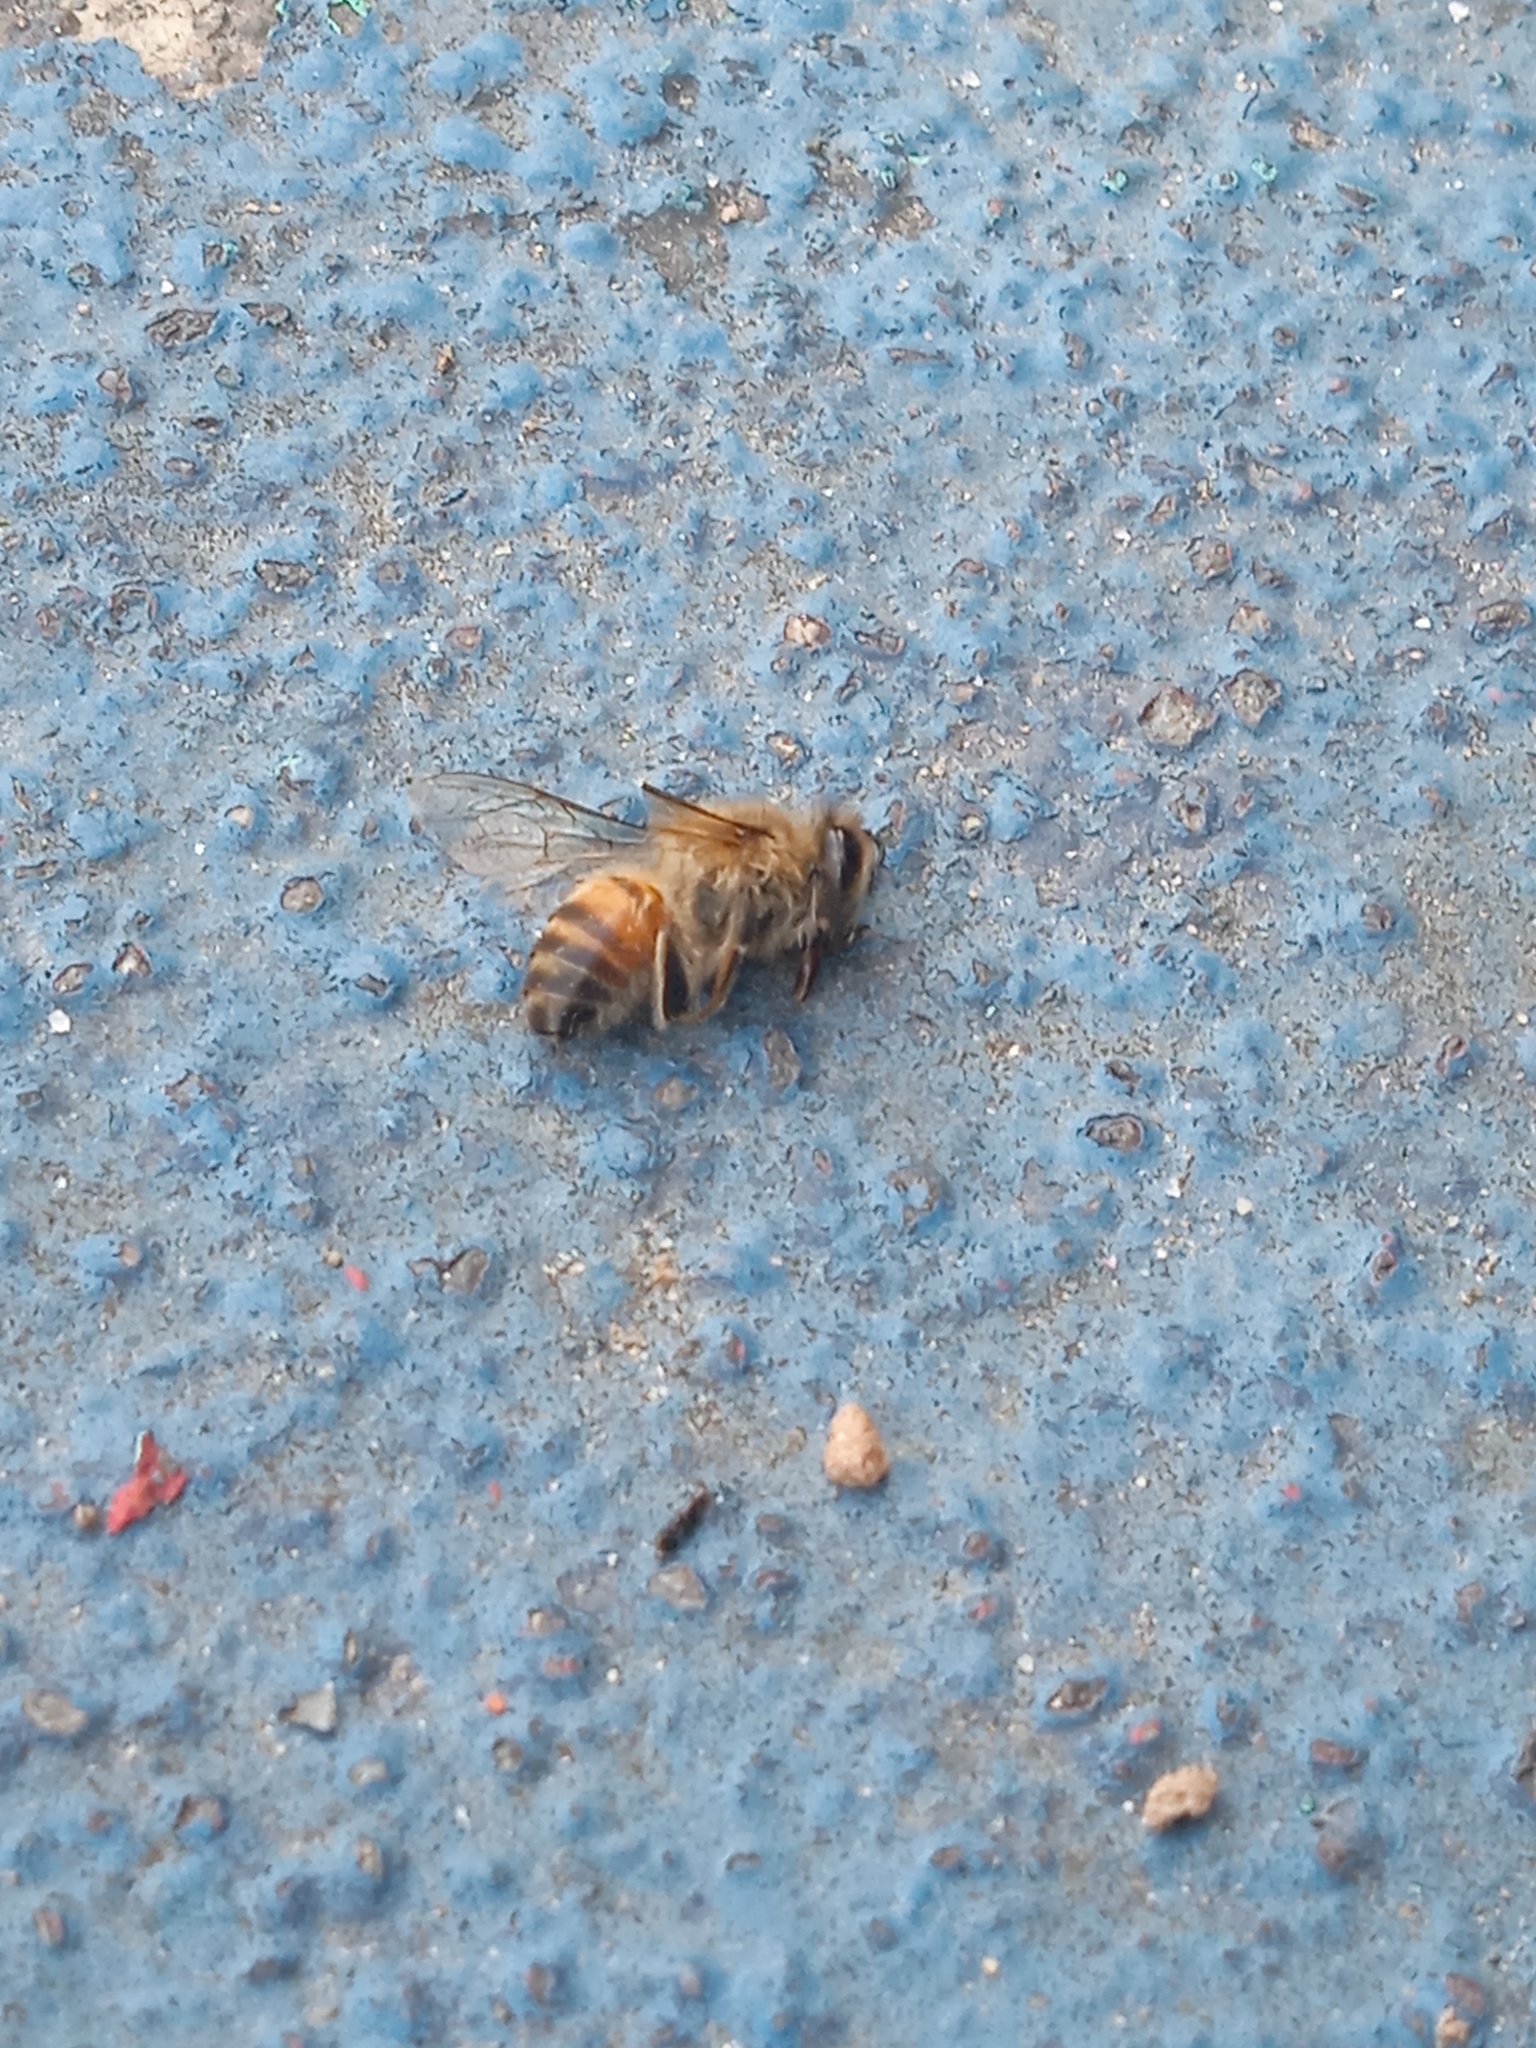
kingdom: Animalia
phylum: Arthropoda
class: Insecta
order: Hymenoptera
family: Apidae
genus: Apis
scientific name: Apis mellifera
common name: Honey bee
